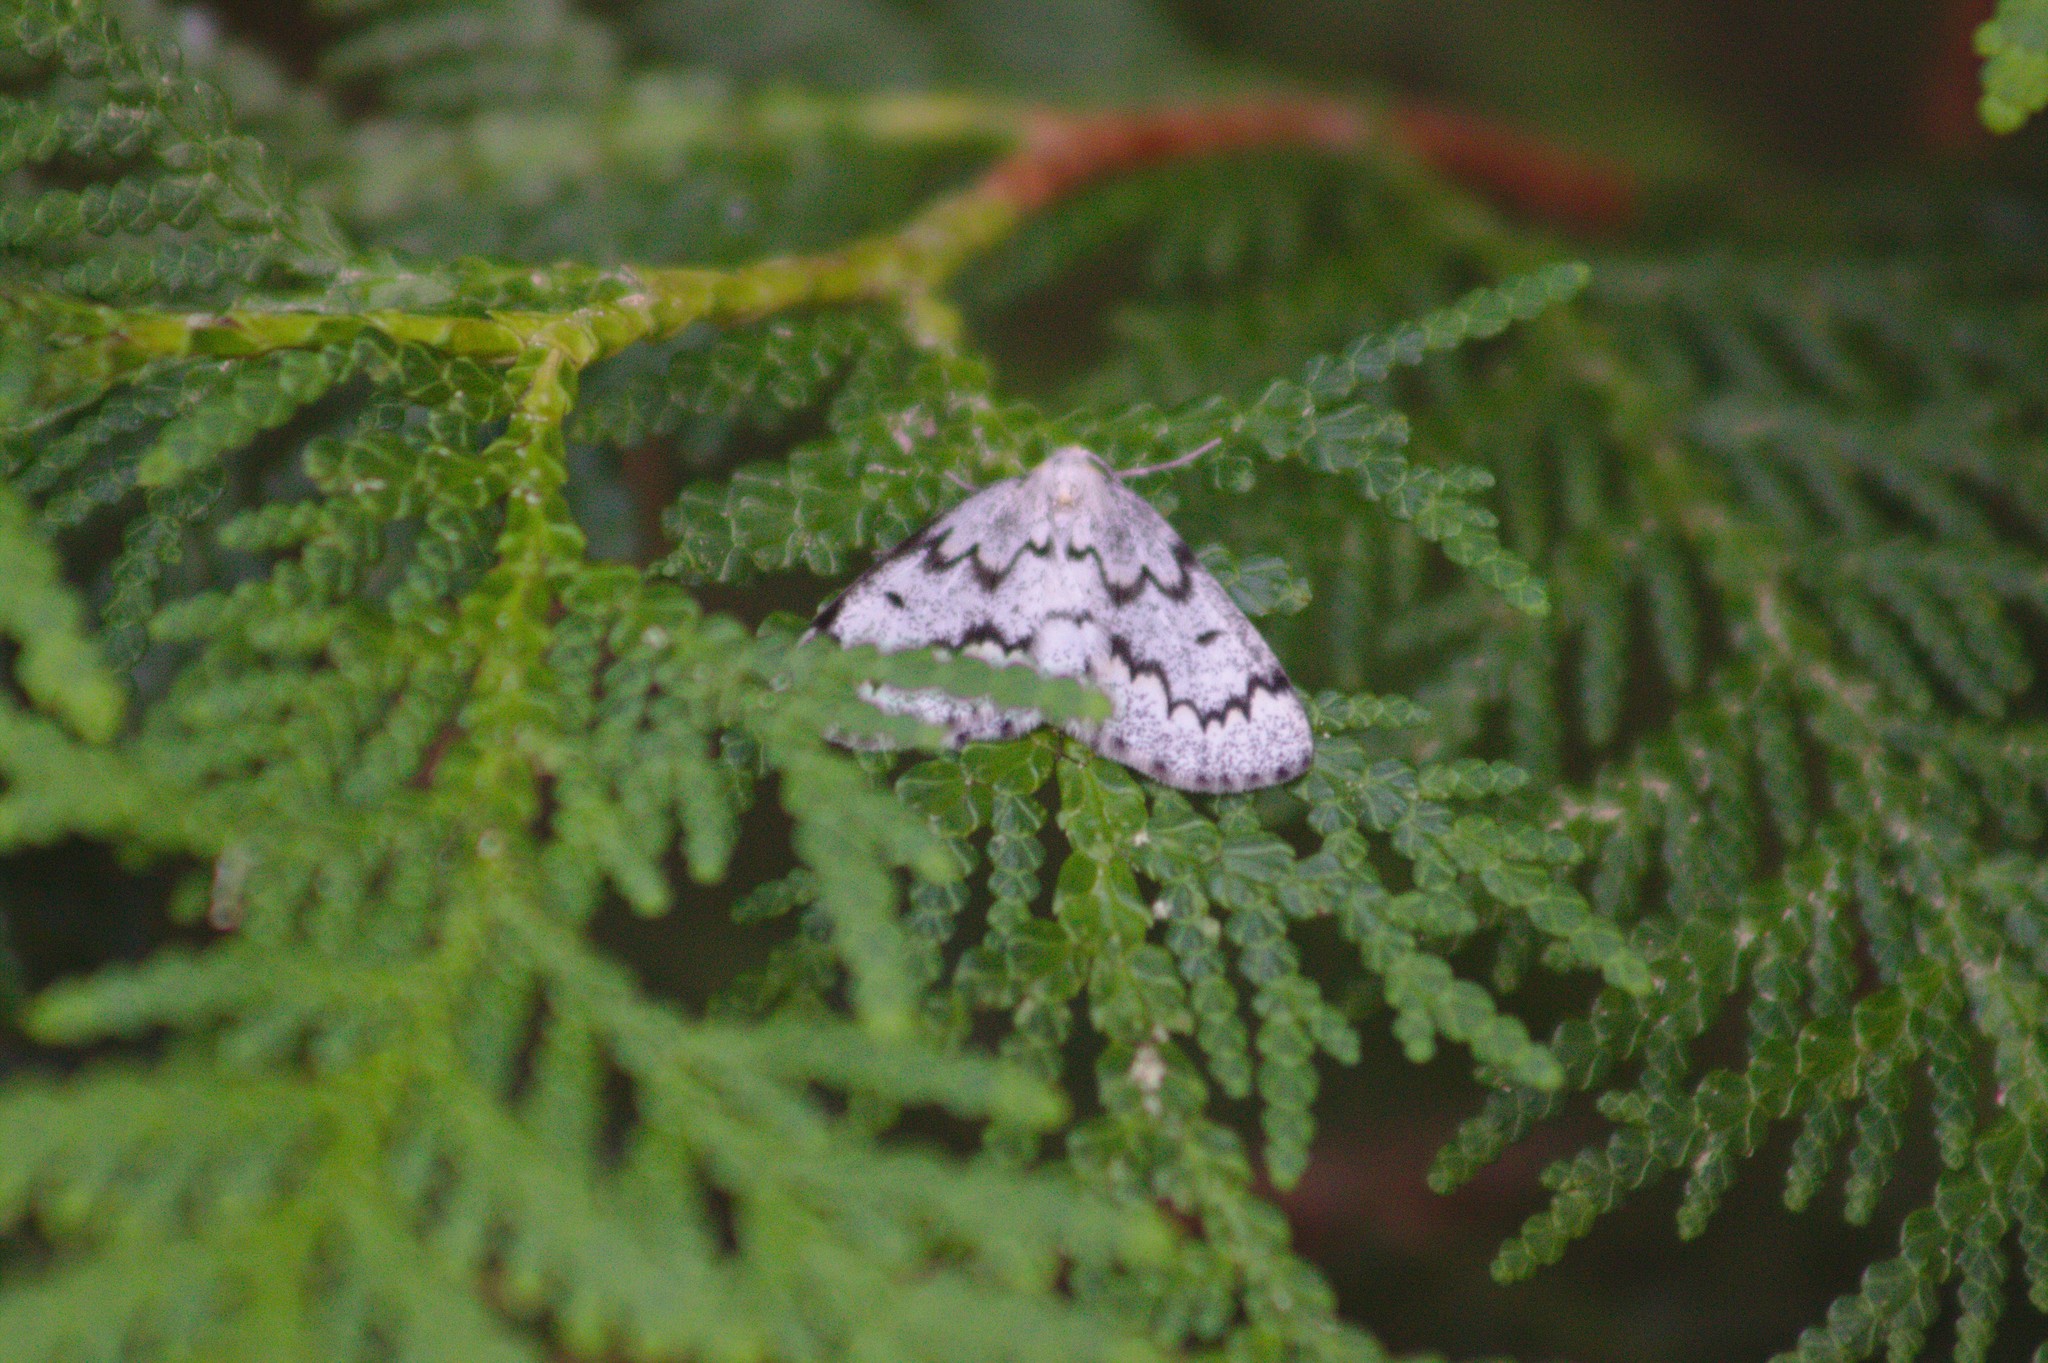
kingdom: Animalia
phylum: Arthropoda
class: Insecta
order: Lepidoptera
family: Geometridae
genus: Nepytia
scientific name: Nepytia canosaria
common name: False hemlock looper
